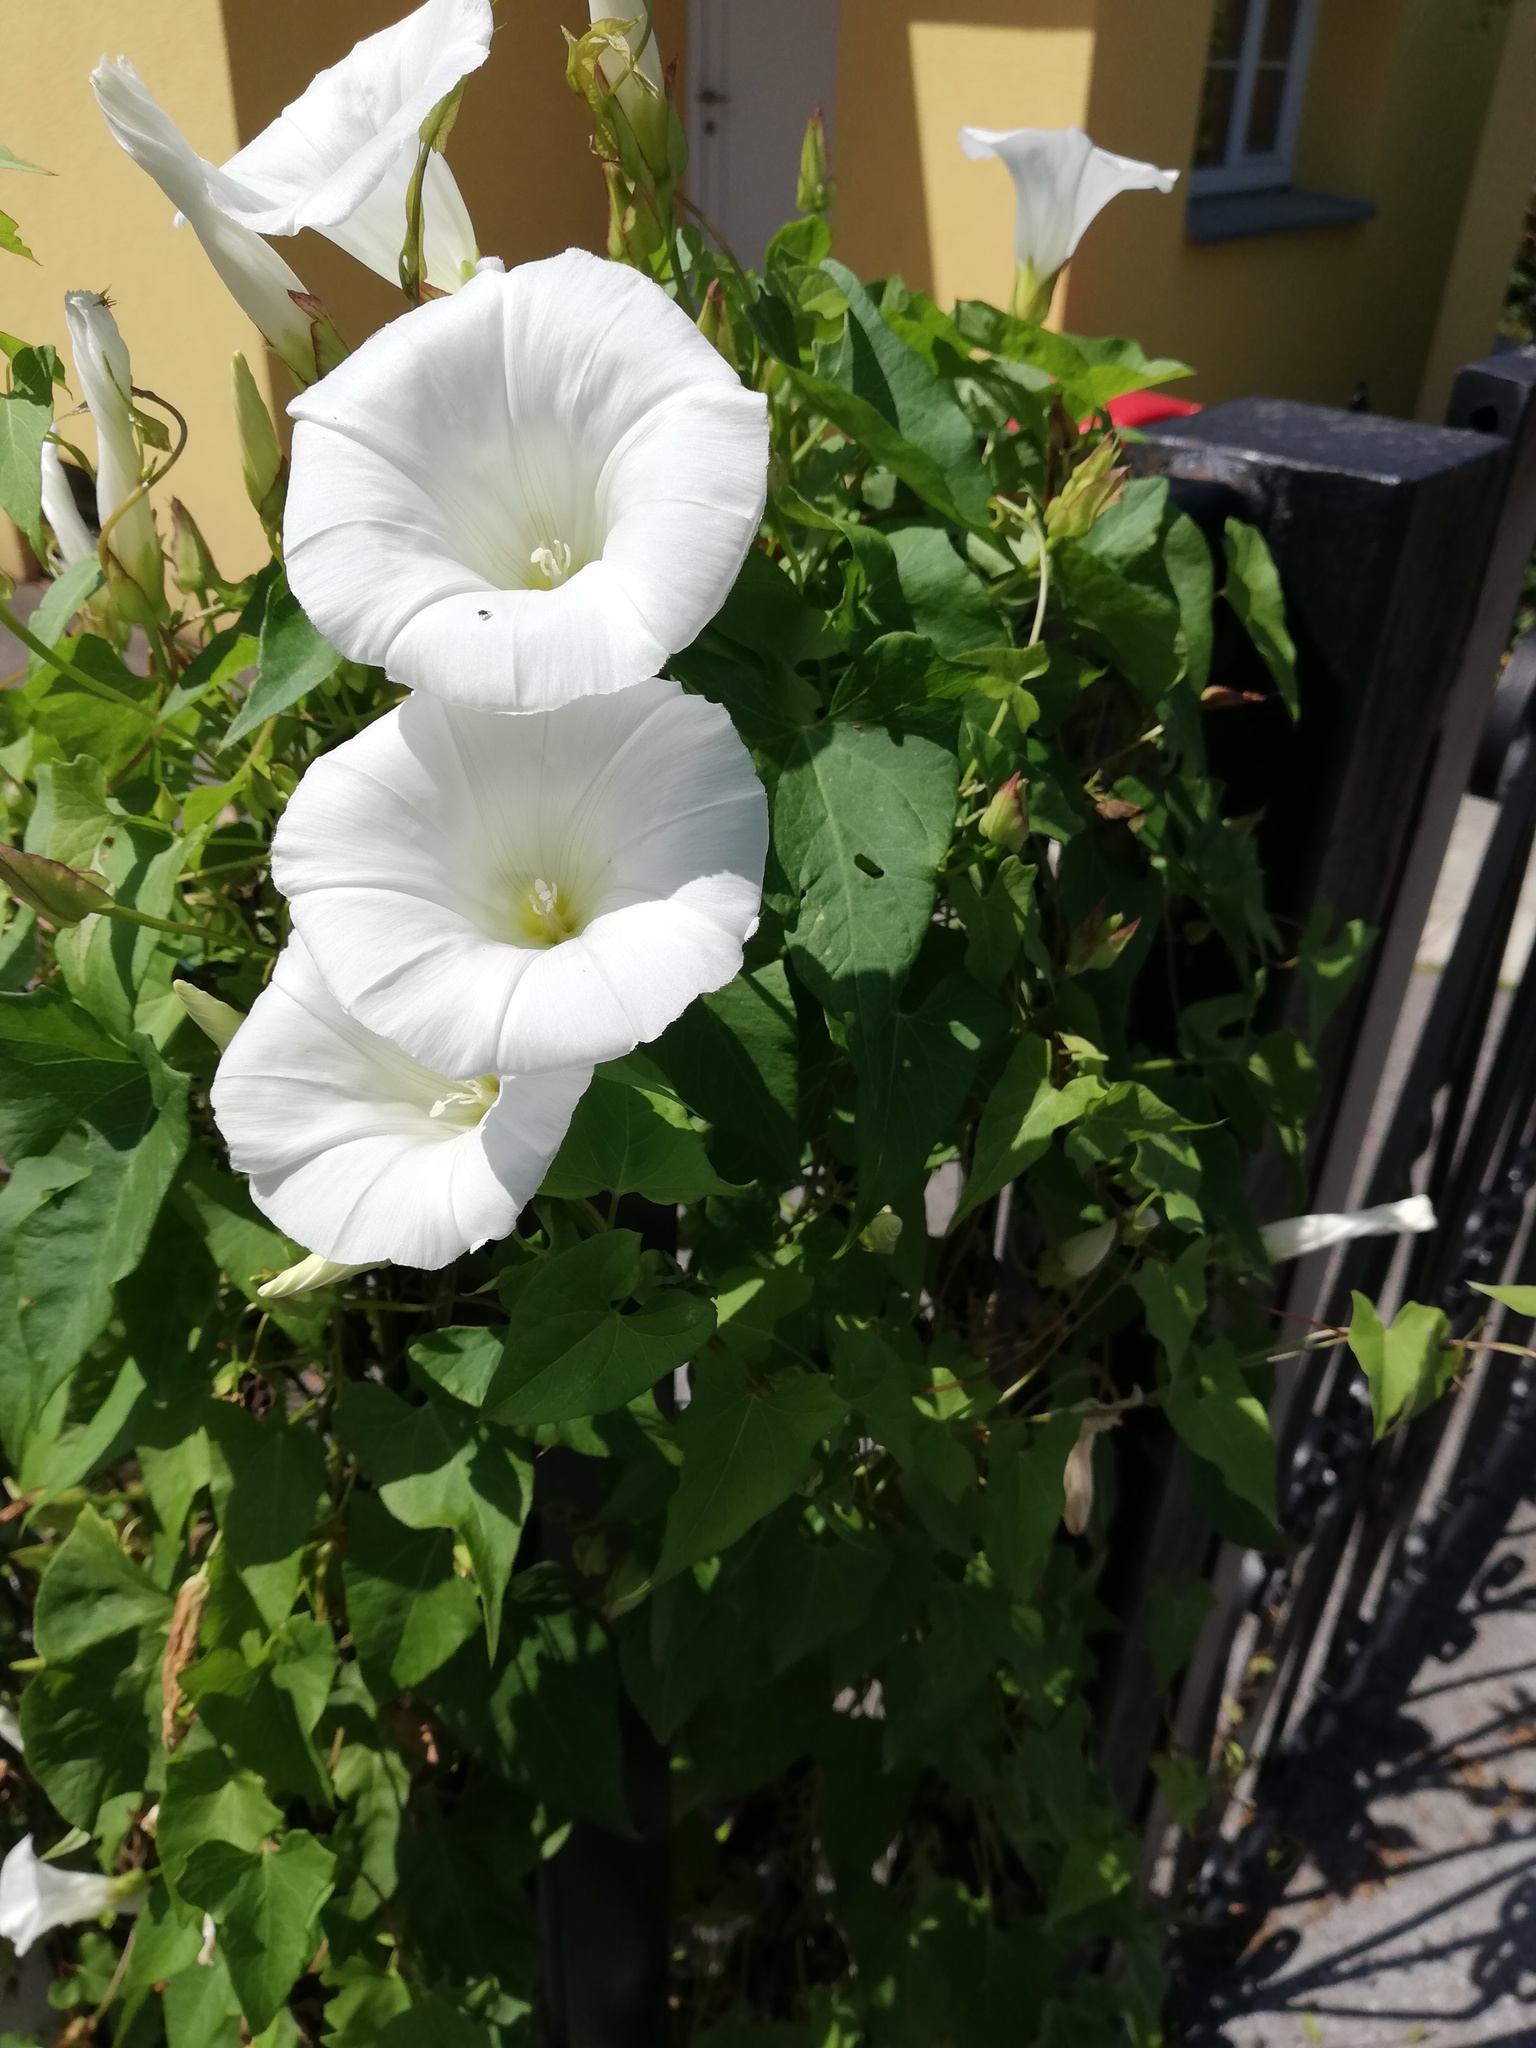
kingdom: Plantae
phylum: Tracheophyta
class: Magnoliopsida
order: Solanales
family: Convolvulaceae
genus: Calystegia
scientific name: Calystegia sepium
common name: Hedge bindweed
